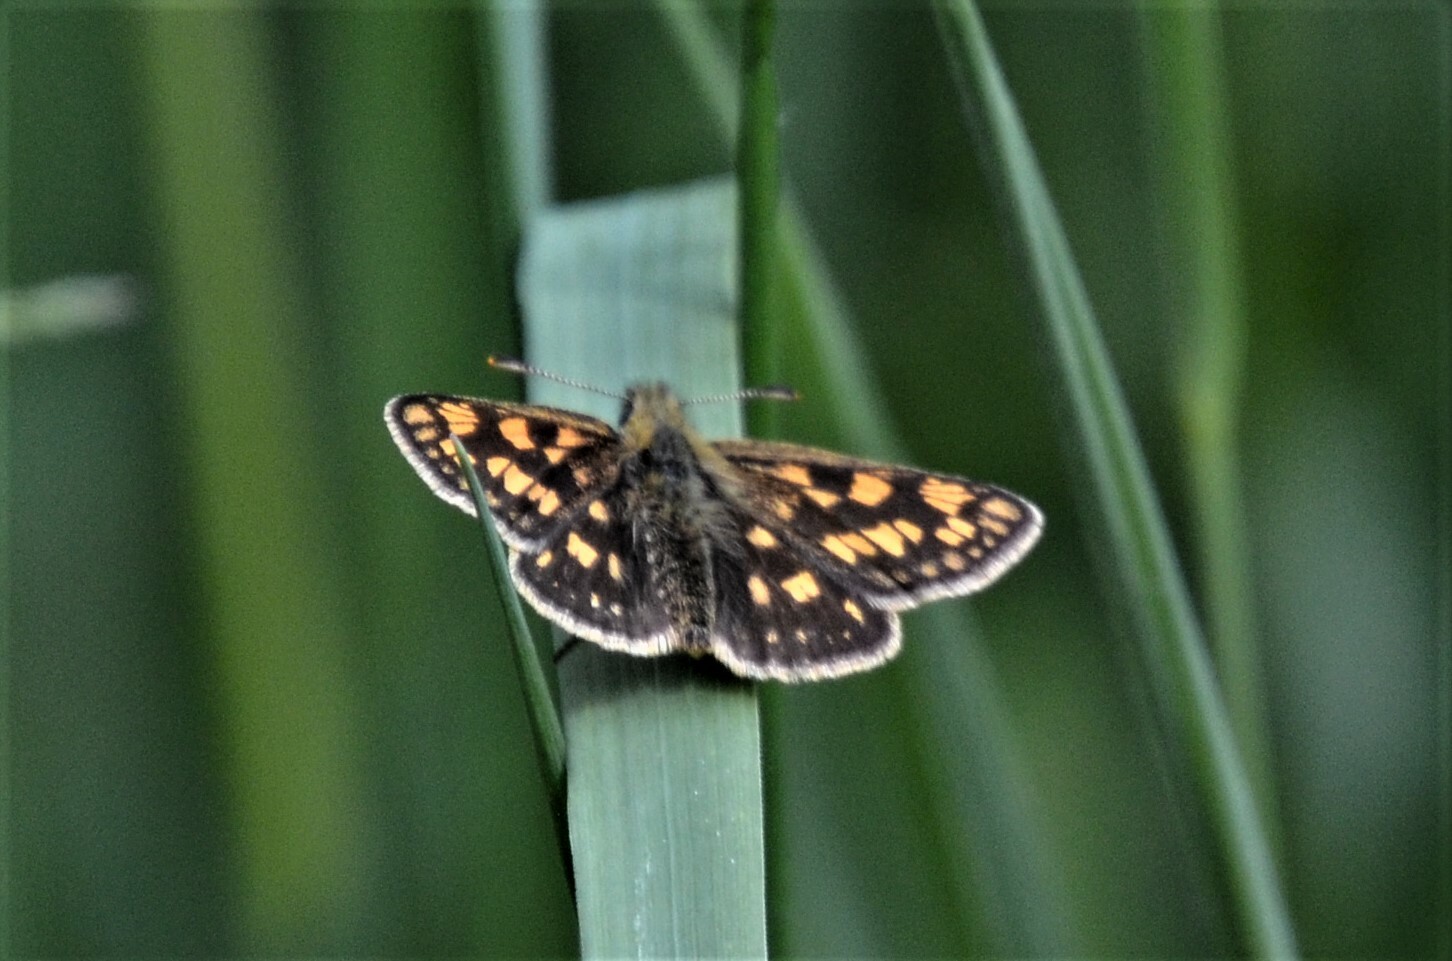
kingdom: Animalia
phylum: Arthropoda
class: Insecta
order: Lepidoptera
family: Hesperiidae
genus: Carterocephalus
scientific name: Carterocephalus palaemon
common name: Chequered skipper
